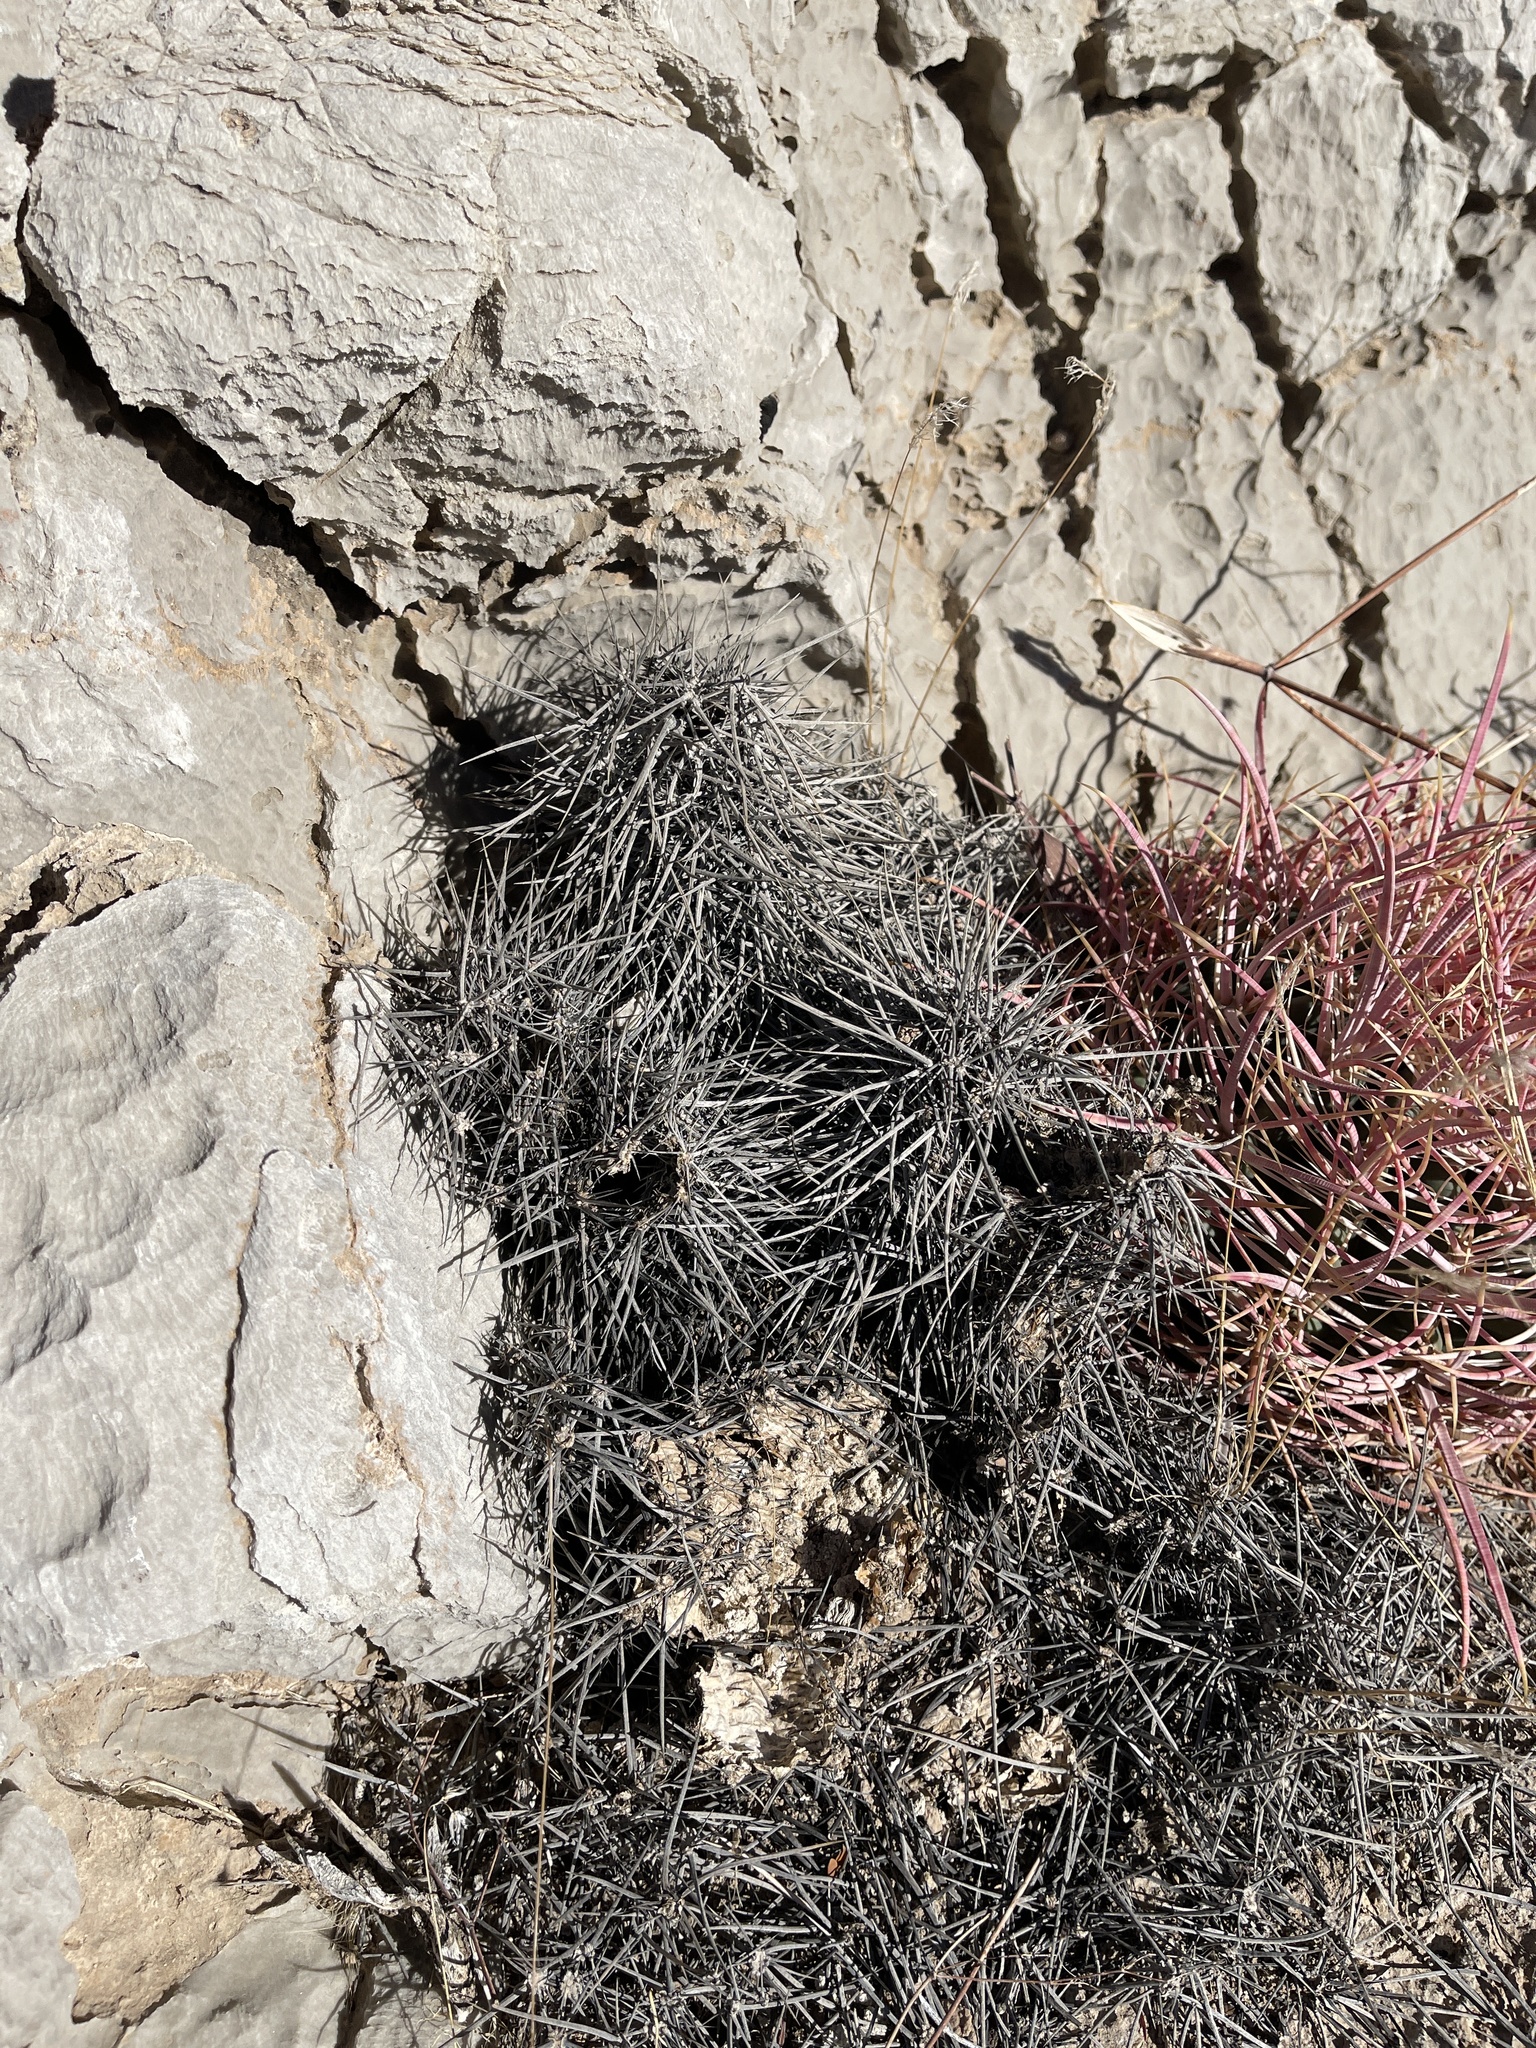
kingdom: Plantae
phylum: Tracheophyta
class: Magnoliopsida
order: Caryophyllales
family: Cactaceae
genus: Echinocereus
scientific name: Echinocereus engelmannii
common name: Engelmann's hedgehog cactus
